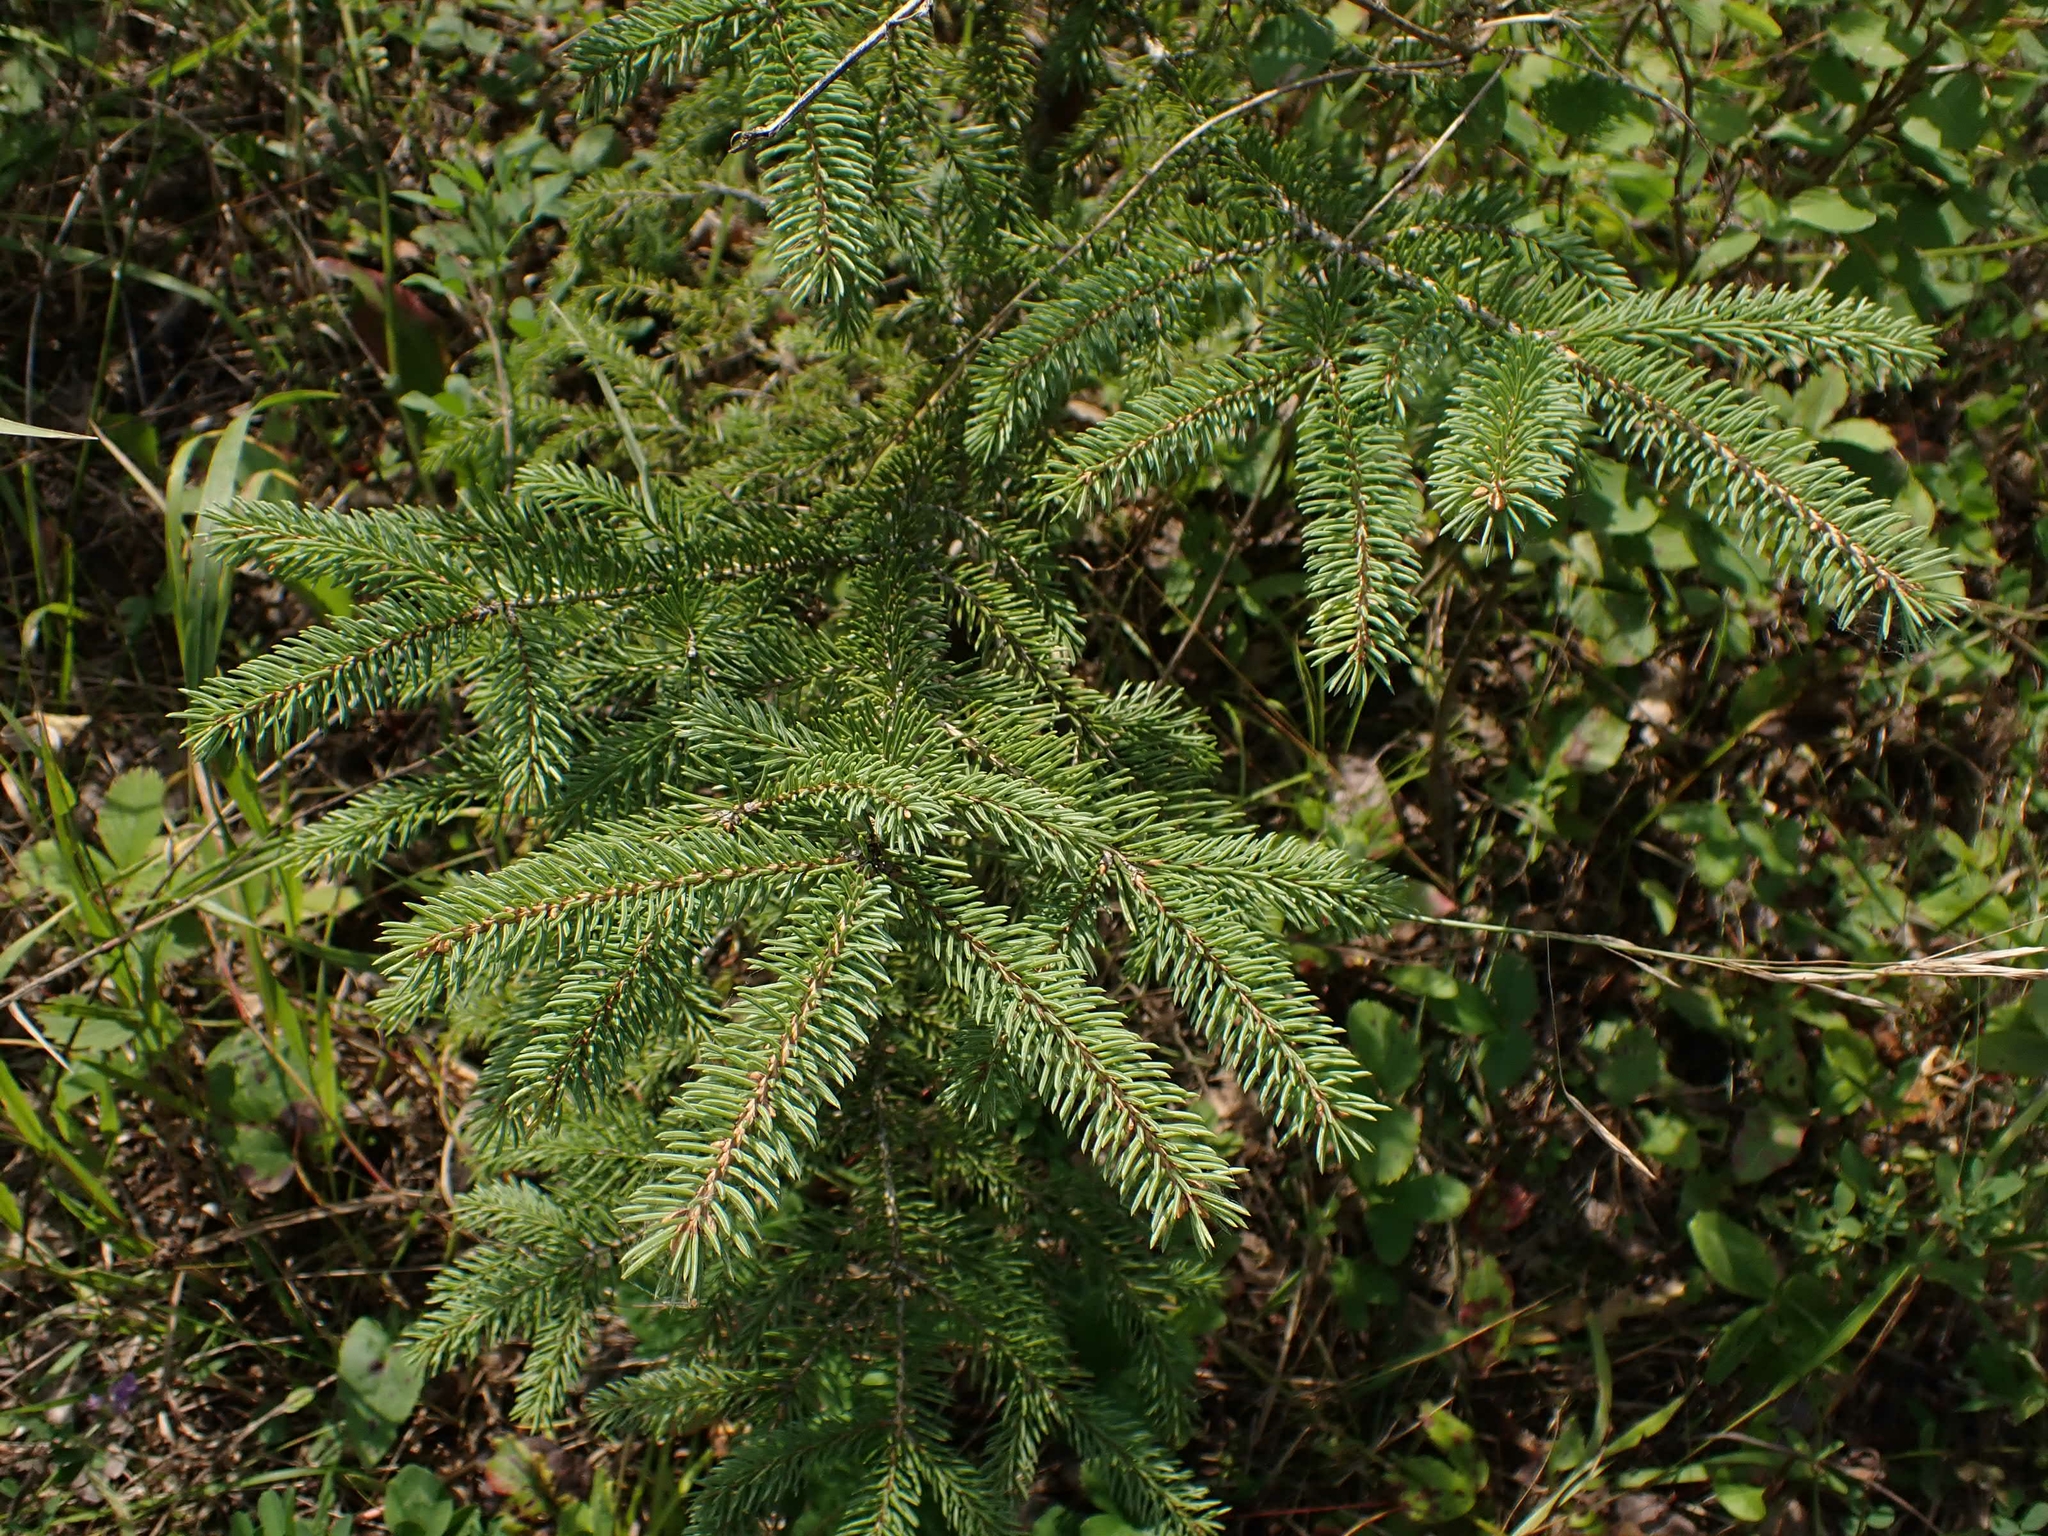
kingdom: Plantae
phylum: Tracheophyta
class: Pinopsida
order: Pinales
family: Pinaceae
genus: Picea
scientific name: Picea glauca
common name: White spruce
